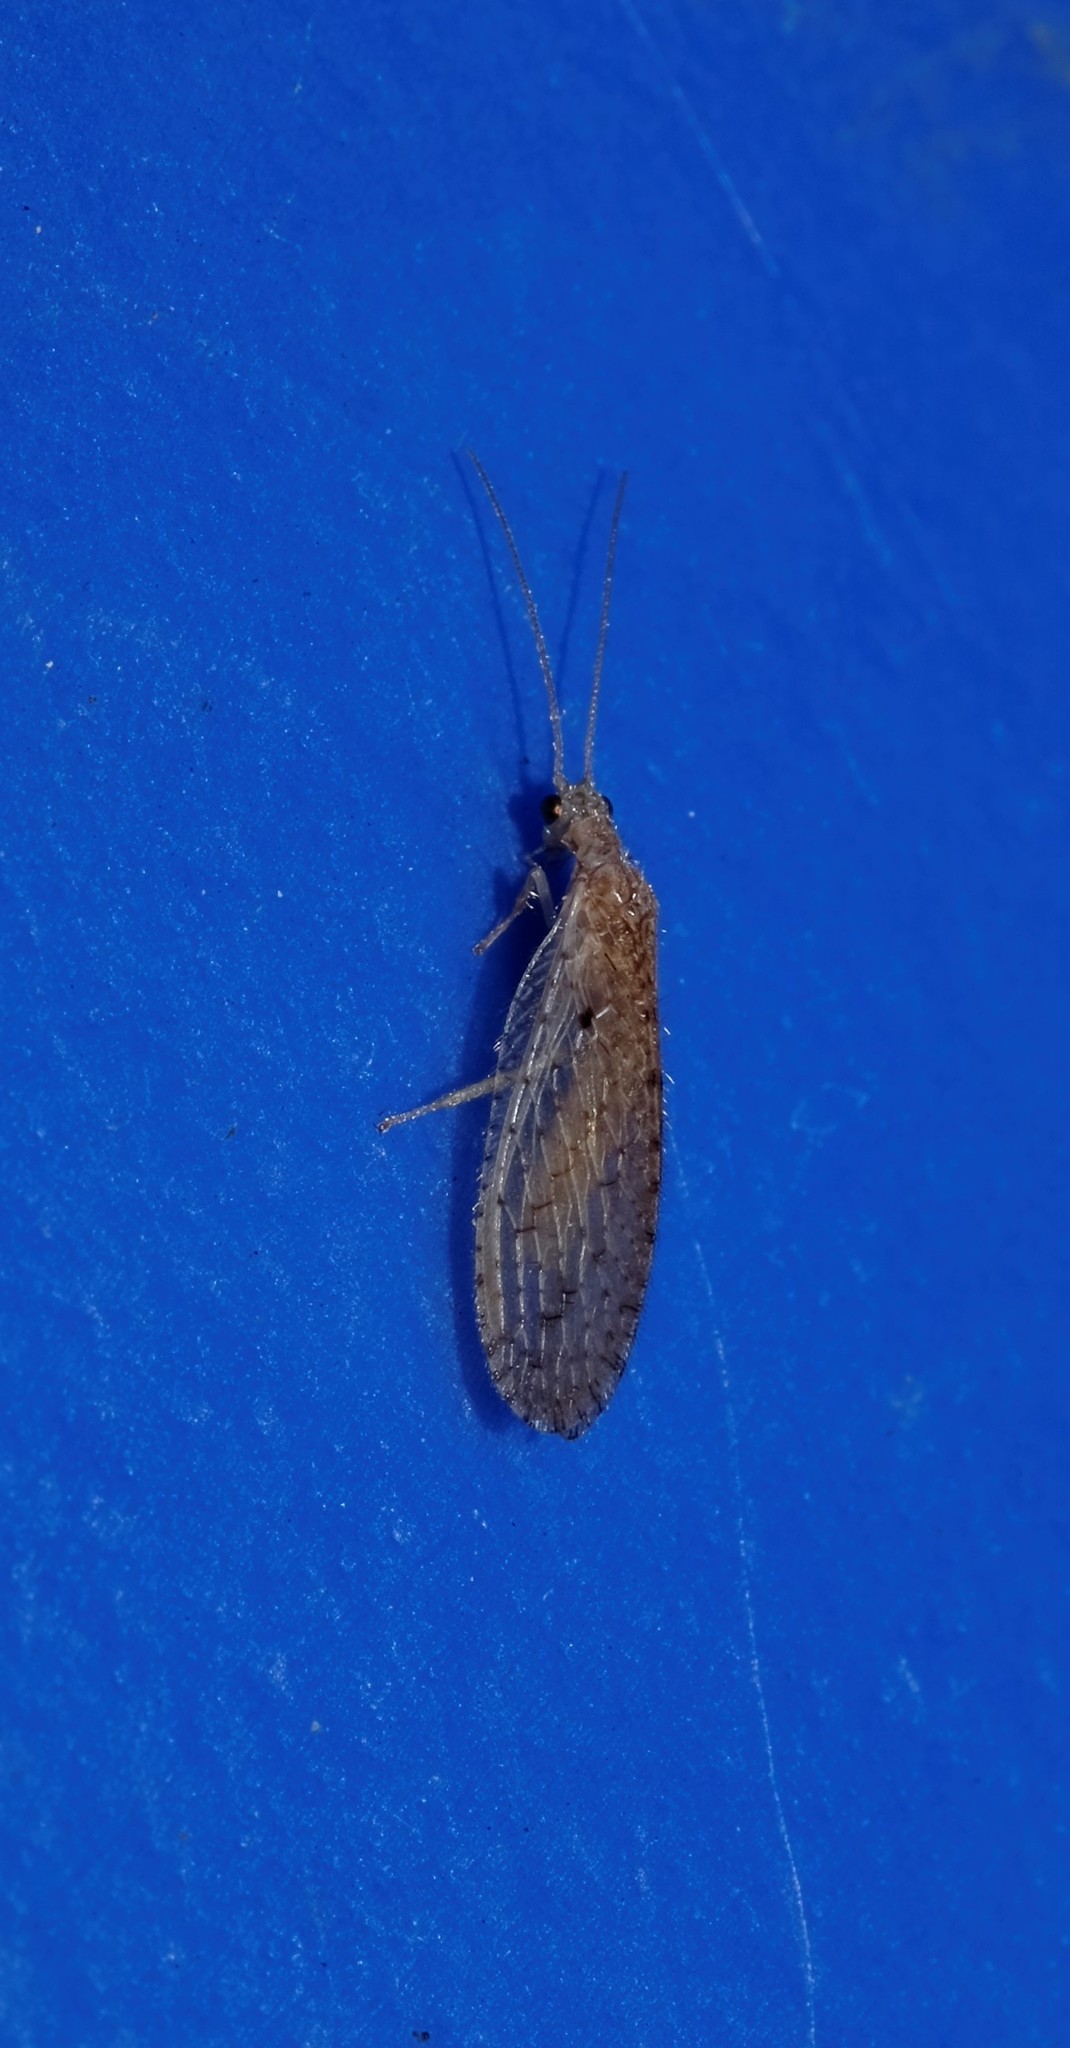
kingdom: Animalia
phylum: Arthropoda
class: Insecta
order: Neuroptera
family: Hemerobiidae
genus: Micromus
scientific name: Micromus tasmaniae
